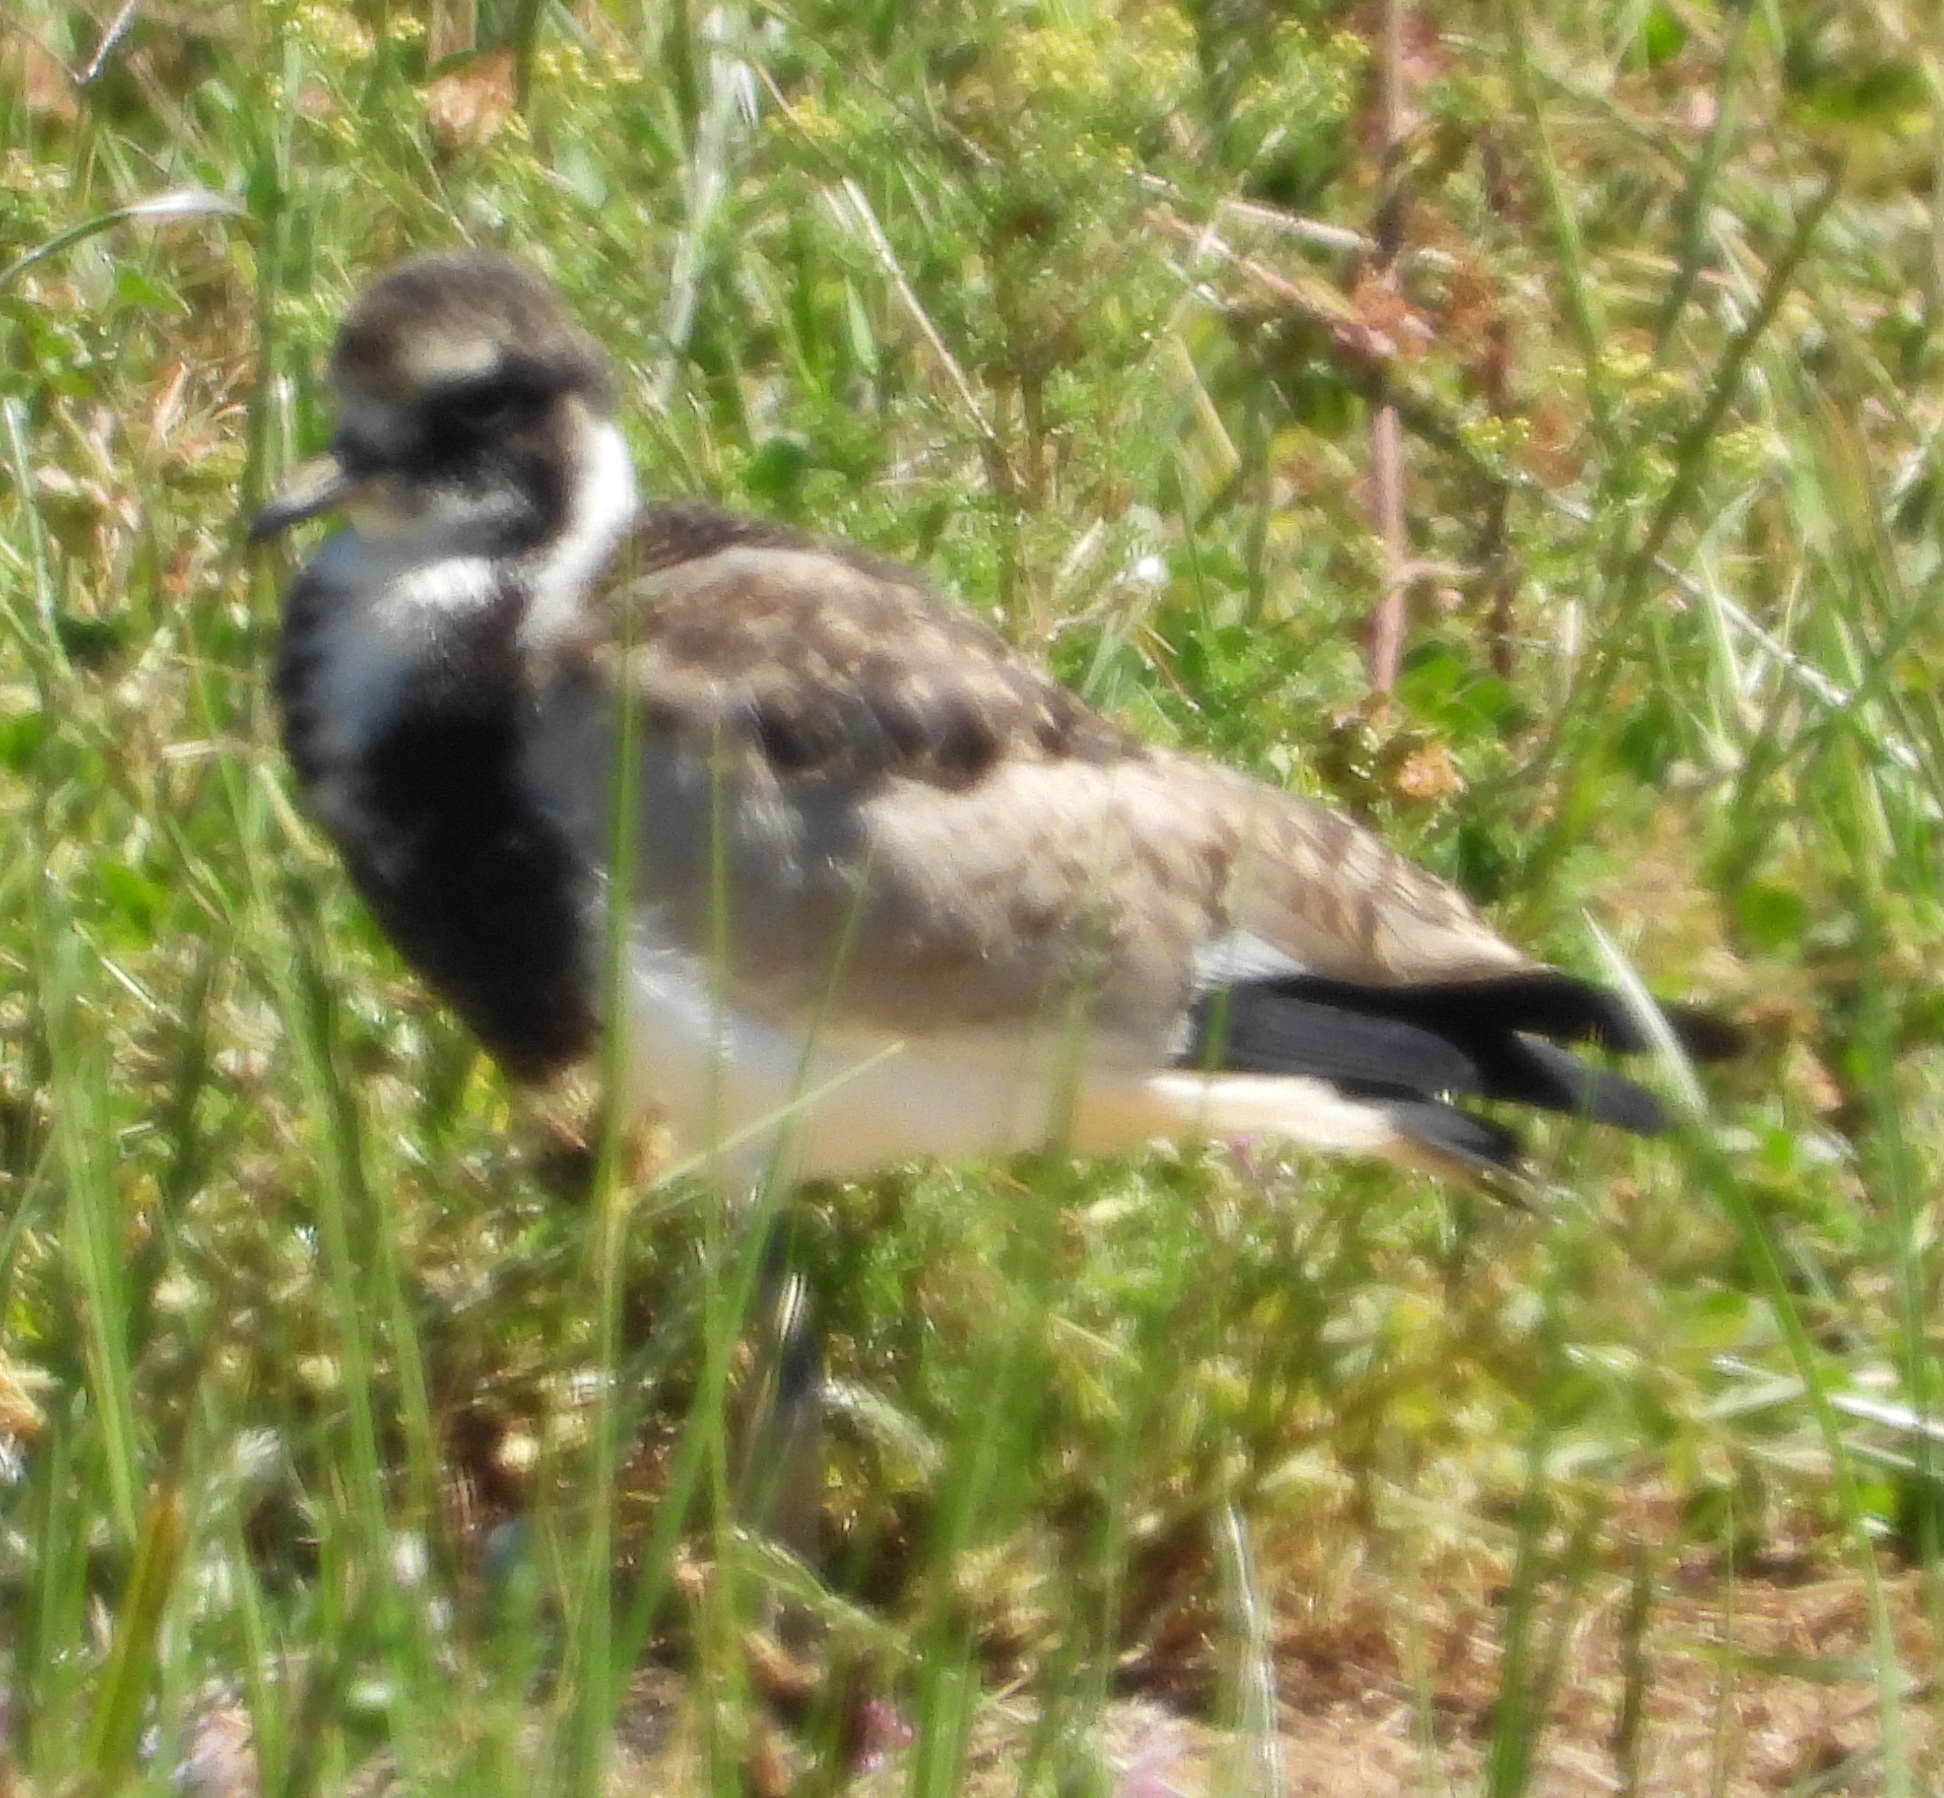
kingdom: Animalia
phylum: Chordata
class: Aves
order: Charadriiformes
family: Charadriidae
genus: Vanellus
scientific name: Vanellus armatus
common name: Blacksmith lapwing
